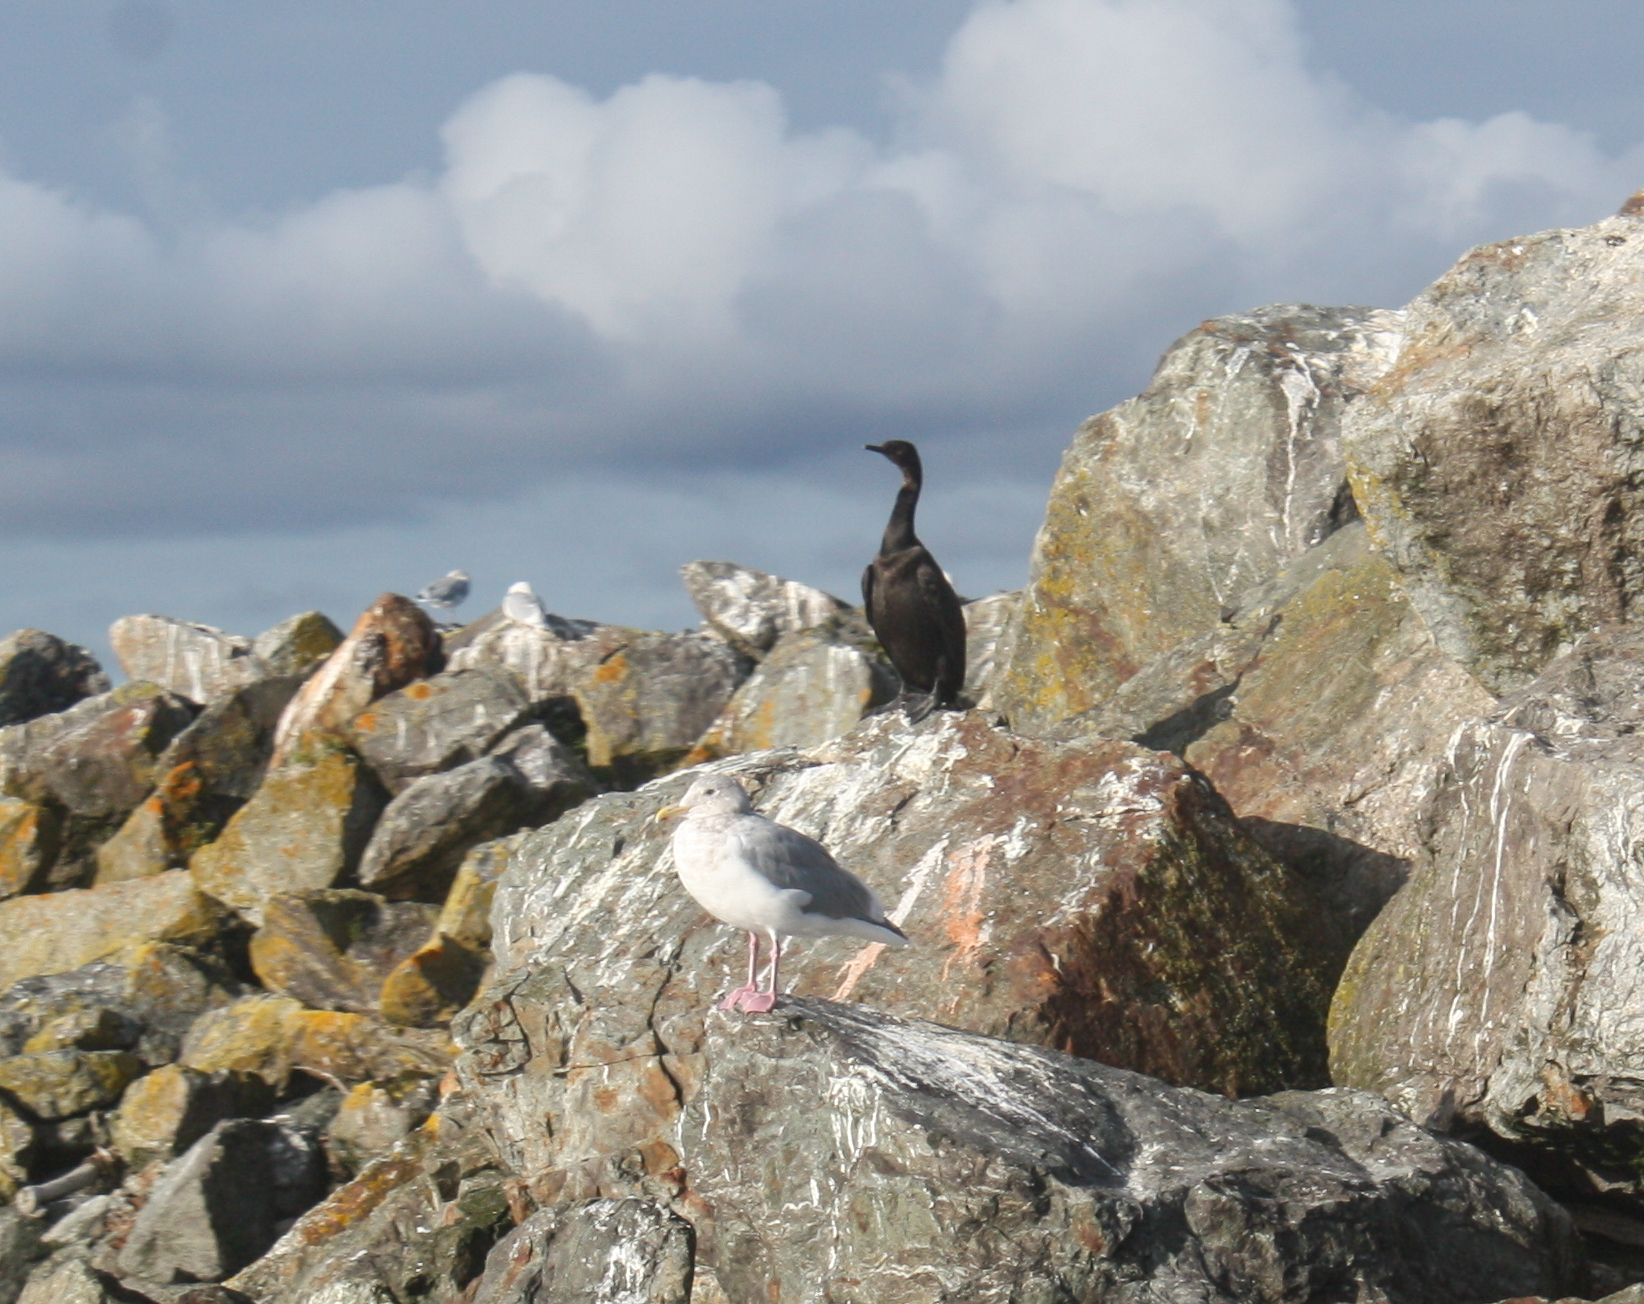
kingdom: Animalia
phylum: Chordata
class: Aves
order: Suliformes
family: Phalacrocoracidae
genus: Phalacrocorax
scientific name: Phalacrocorax pelagicus
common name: Pelagic cormorant
